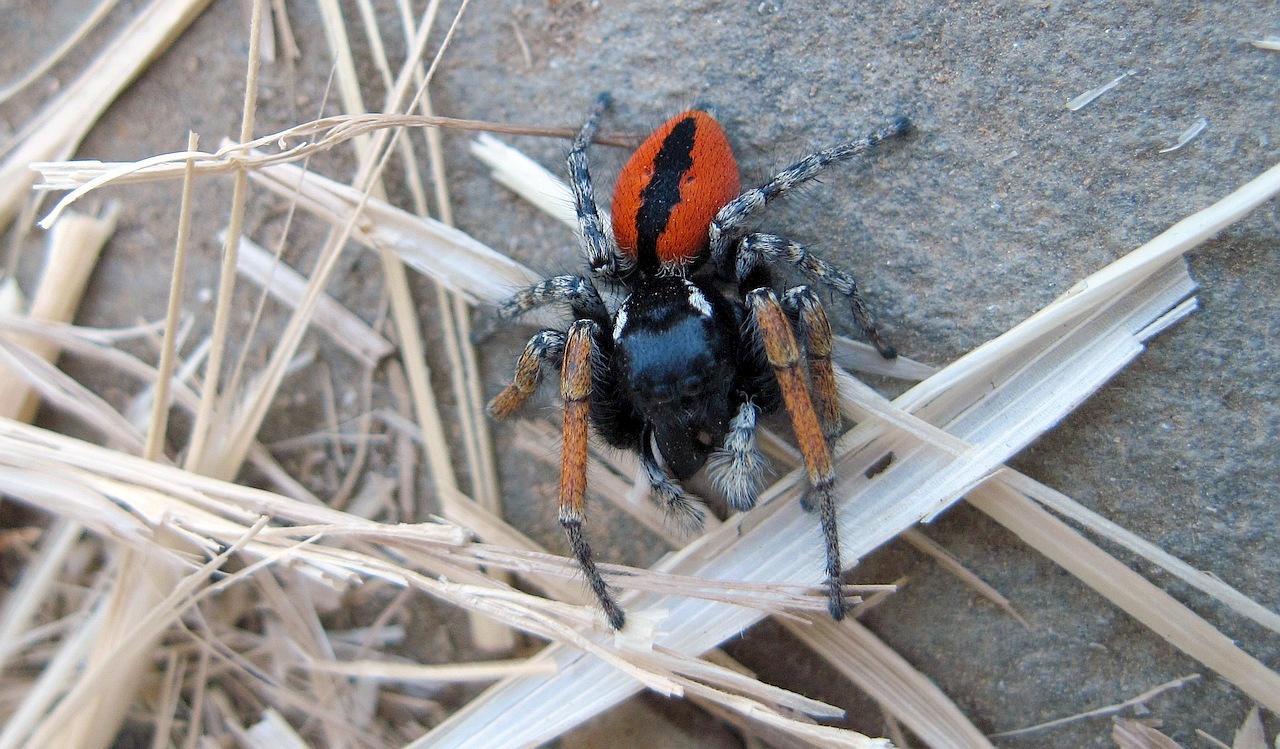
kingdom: Animalia
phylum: Arthropoda
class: Arachnida
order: Araneae
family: Salticidae
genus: Philaeus
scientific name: Philaeus chrysops
